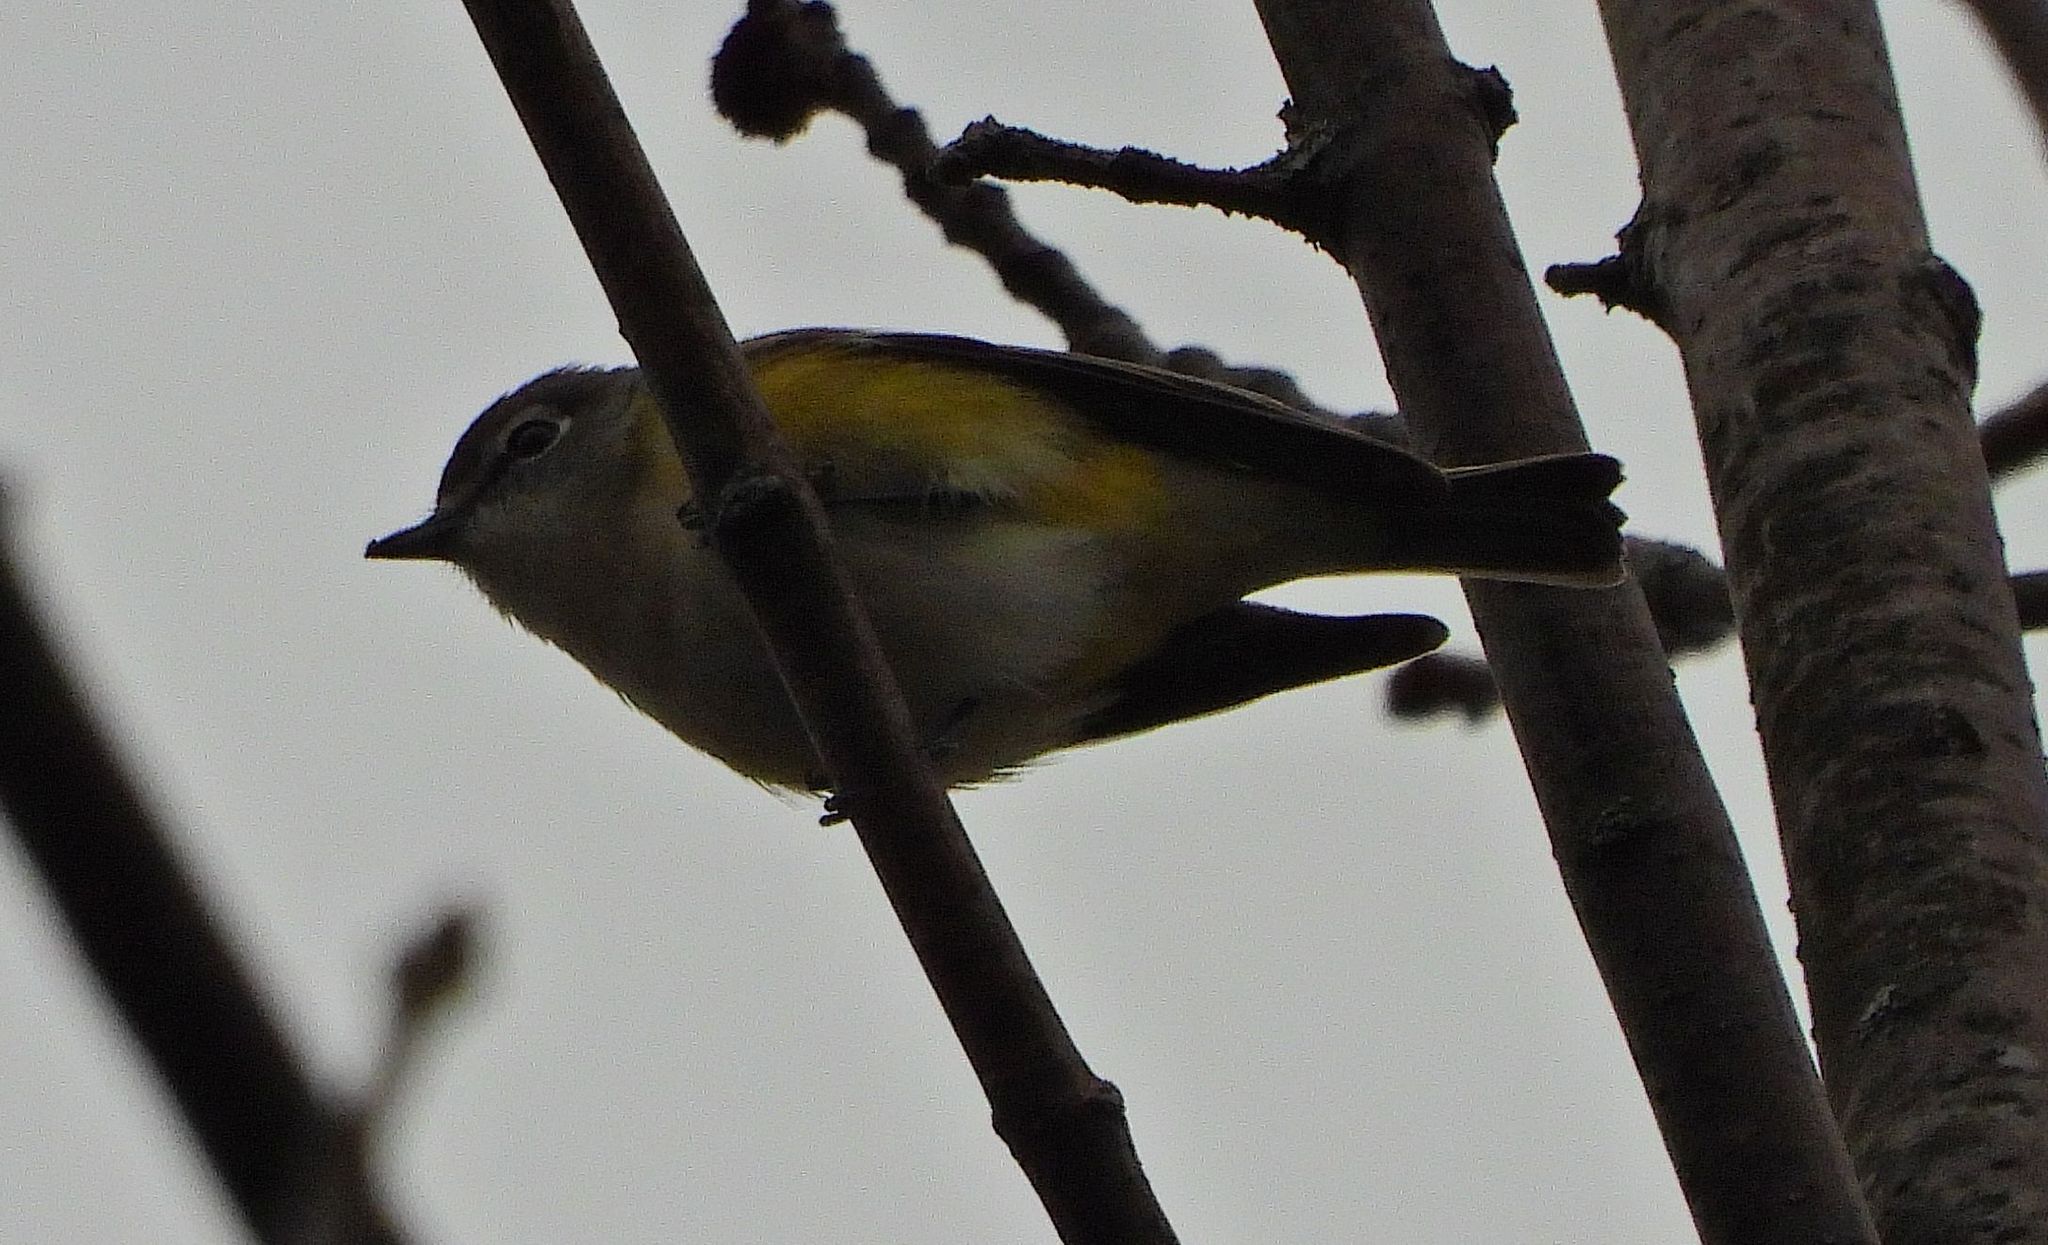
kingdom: Animalia
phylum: Chordata
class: Aves
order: Passeriformes
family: Vireonidae
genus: Vireo
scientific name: Vireo solitarius
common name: Blue-headed vireo
